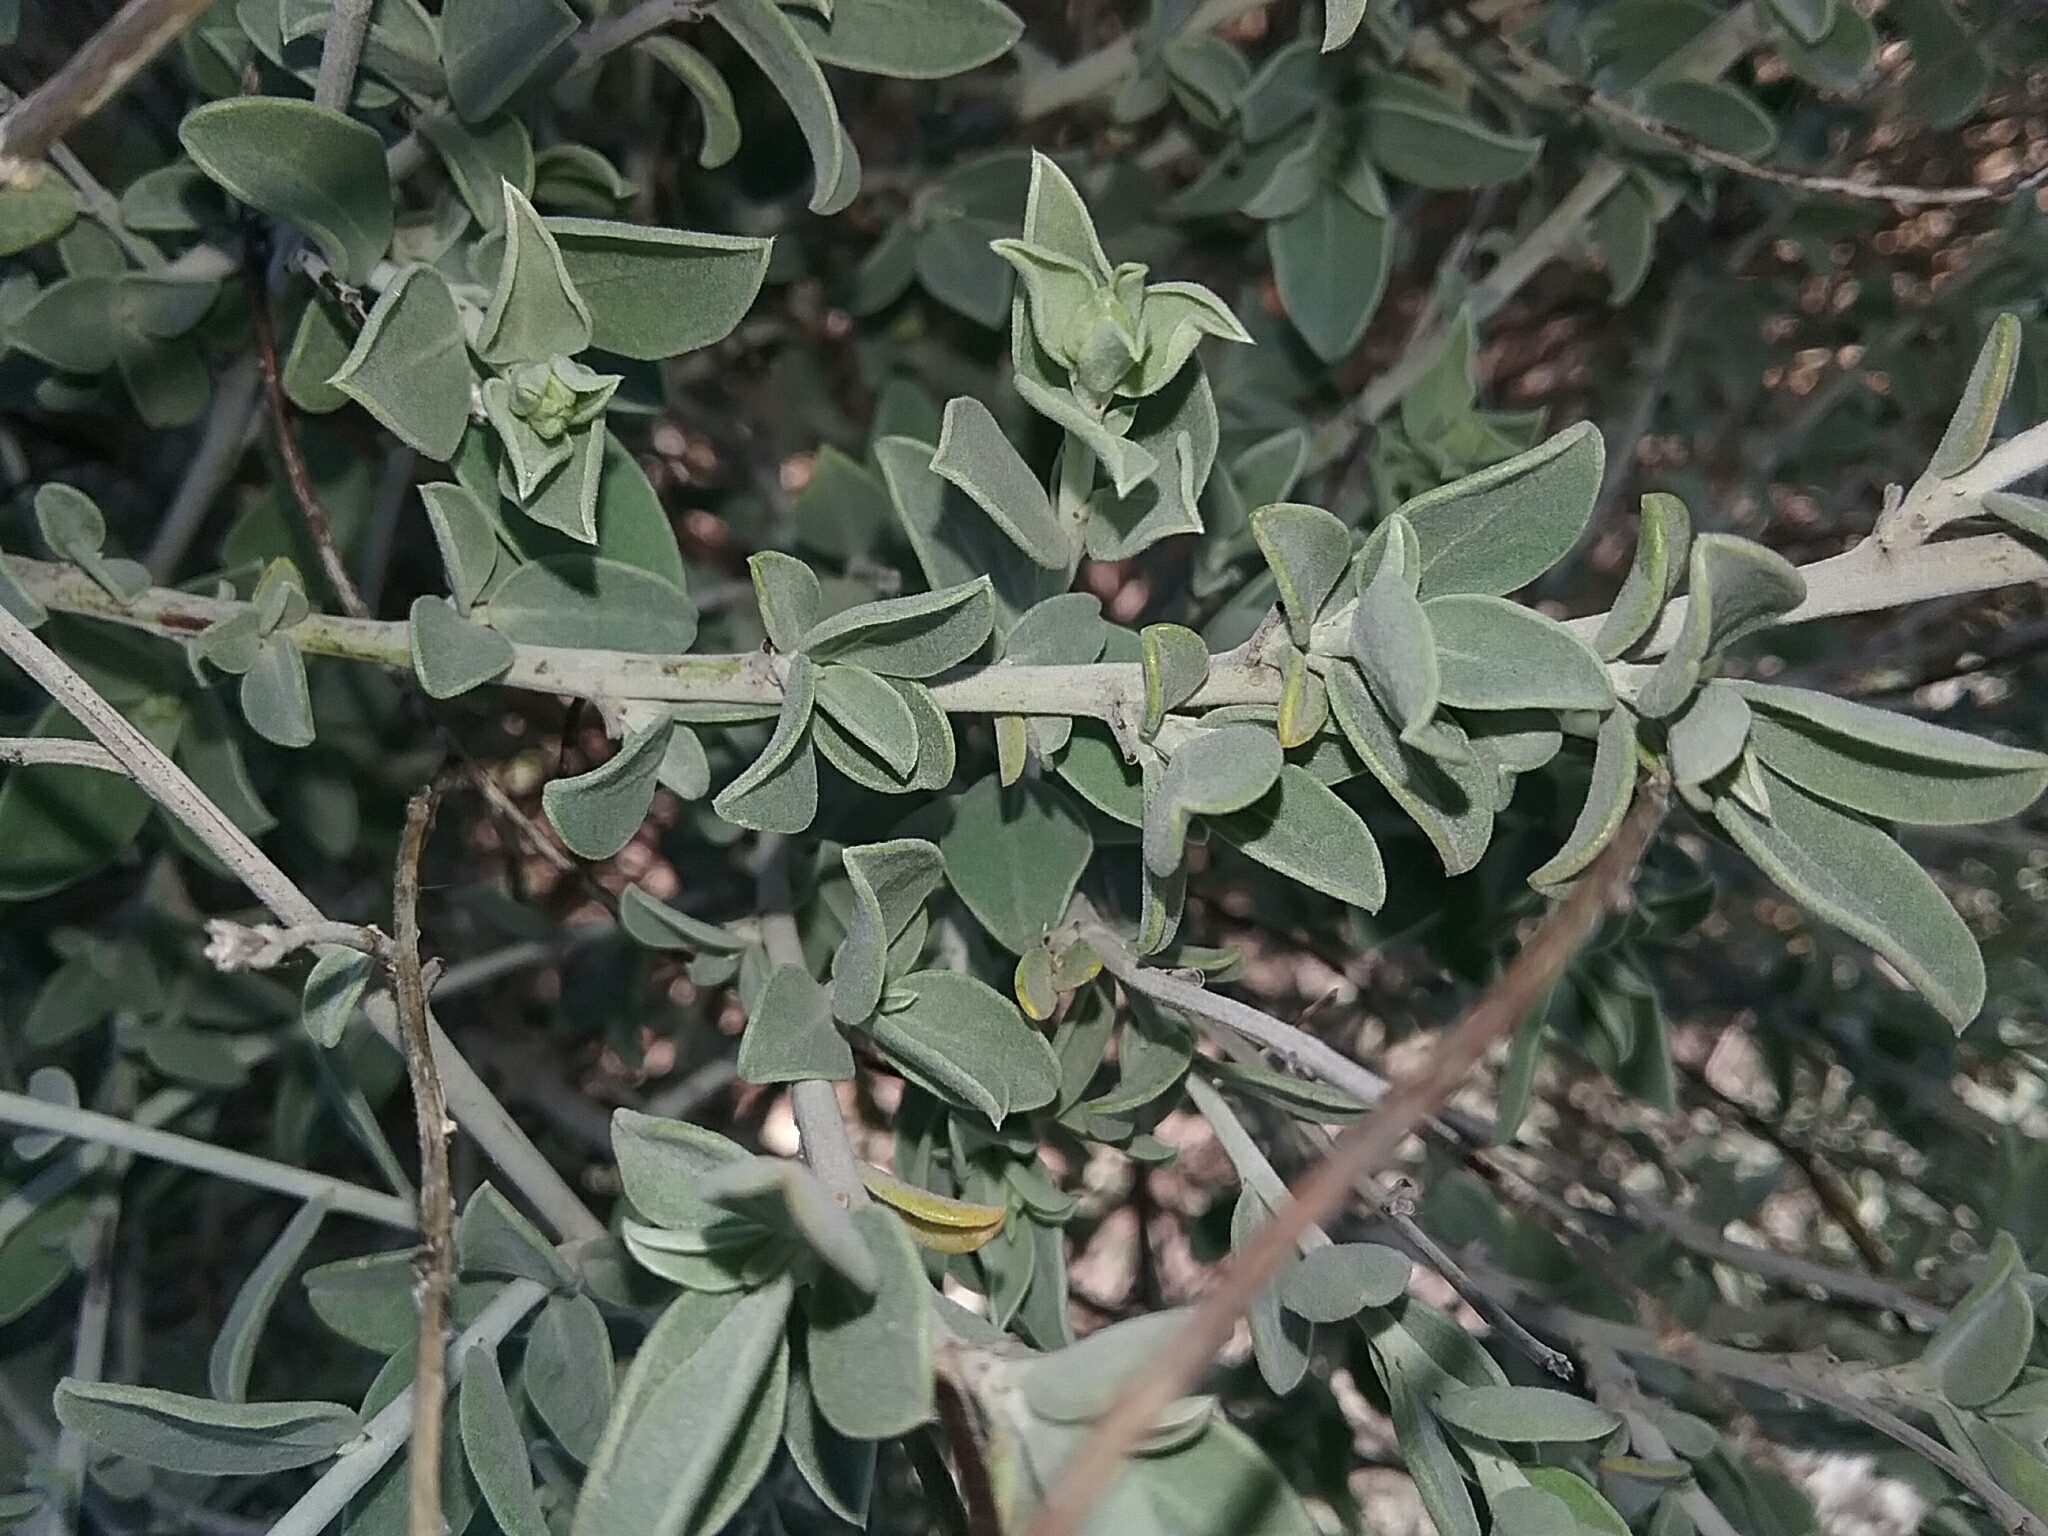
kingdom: Plantae
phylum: Tracheophyta
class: Magnoliopsida
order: Fabales
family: Fabaceae
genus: Anthyllis
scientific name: Anthyllis cytisoides
